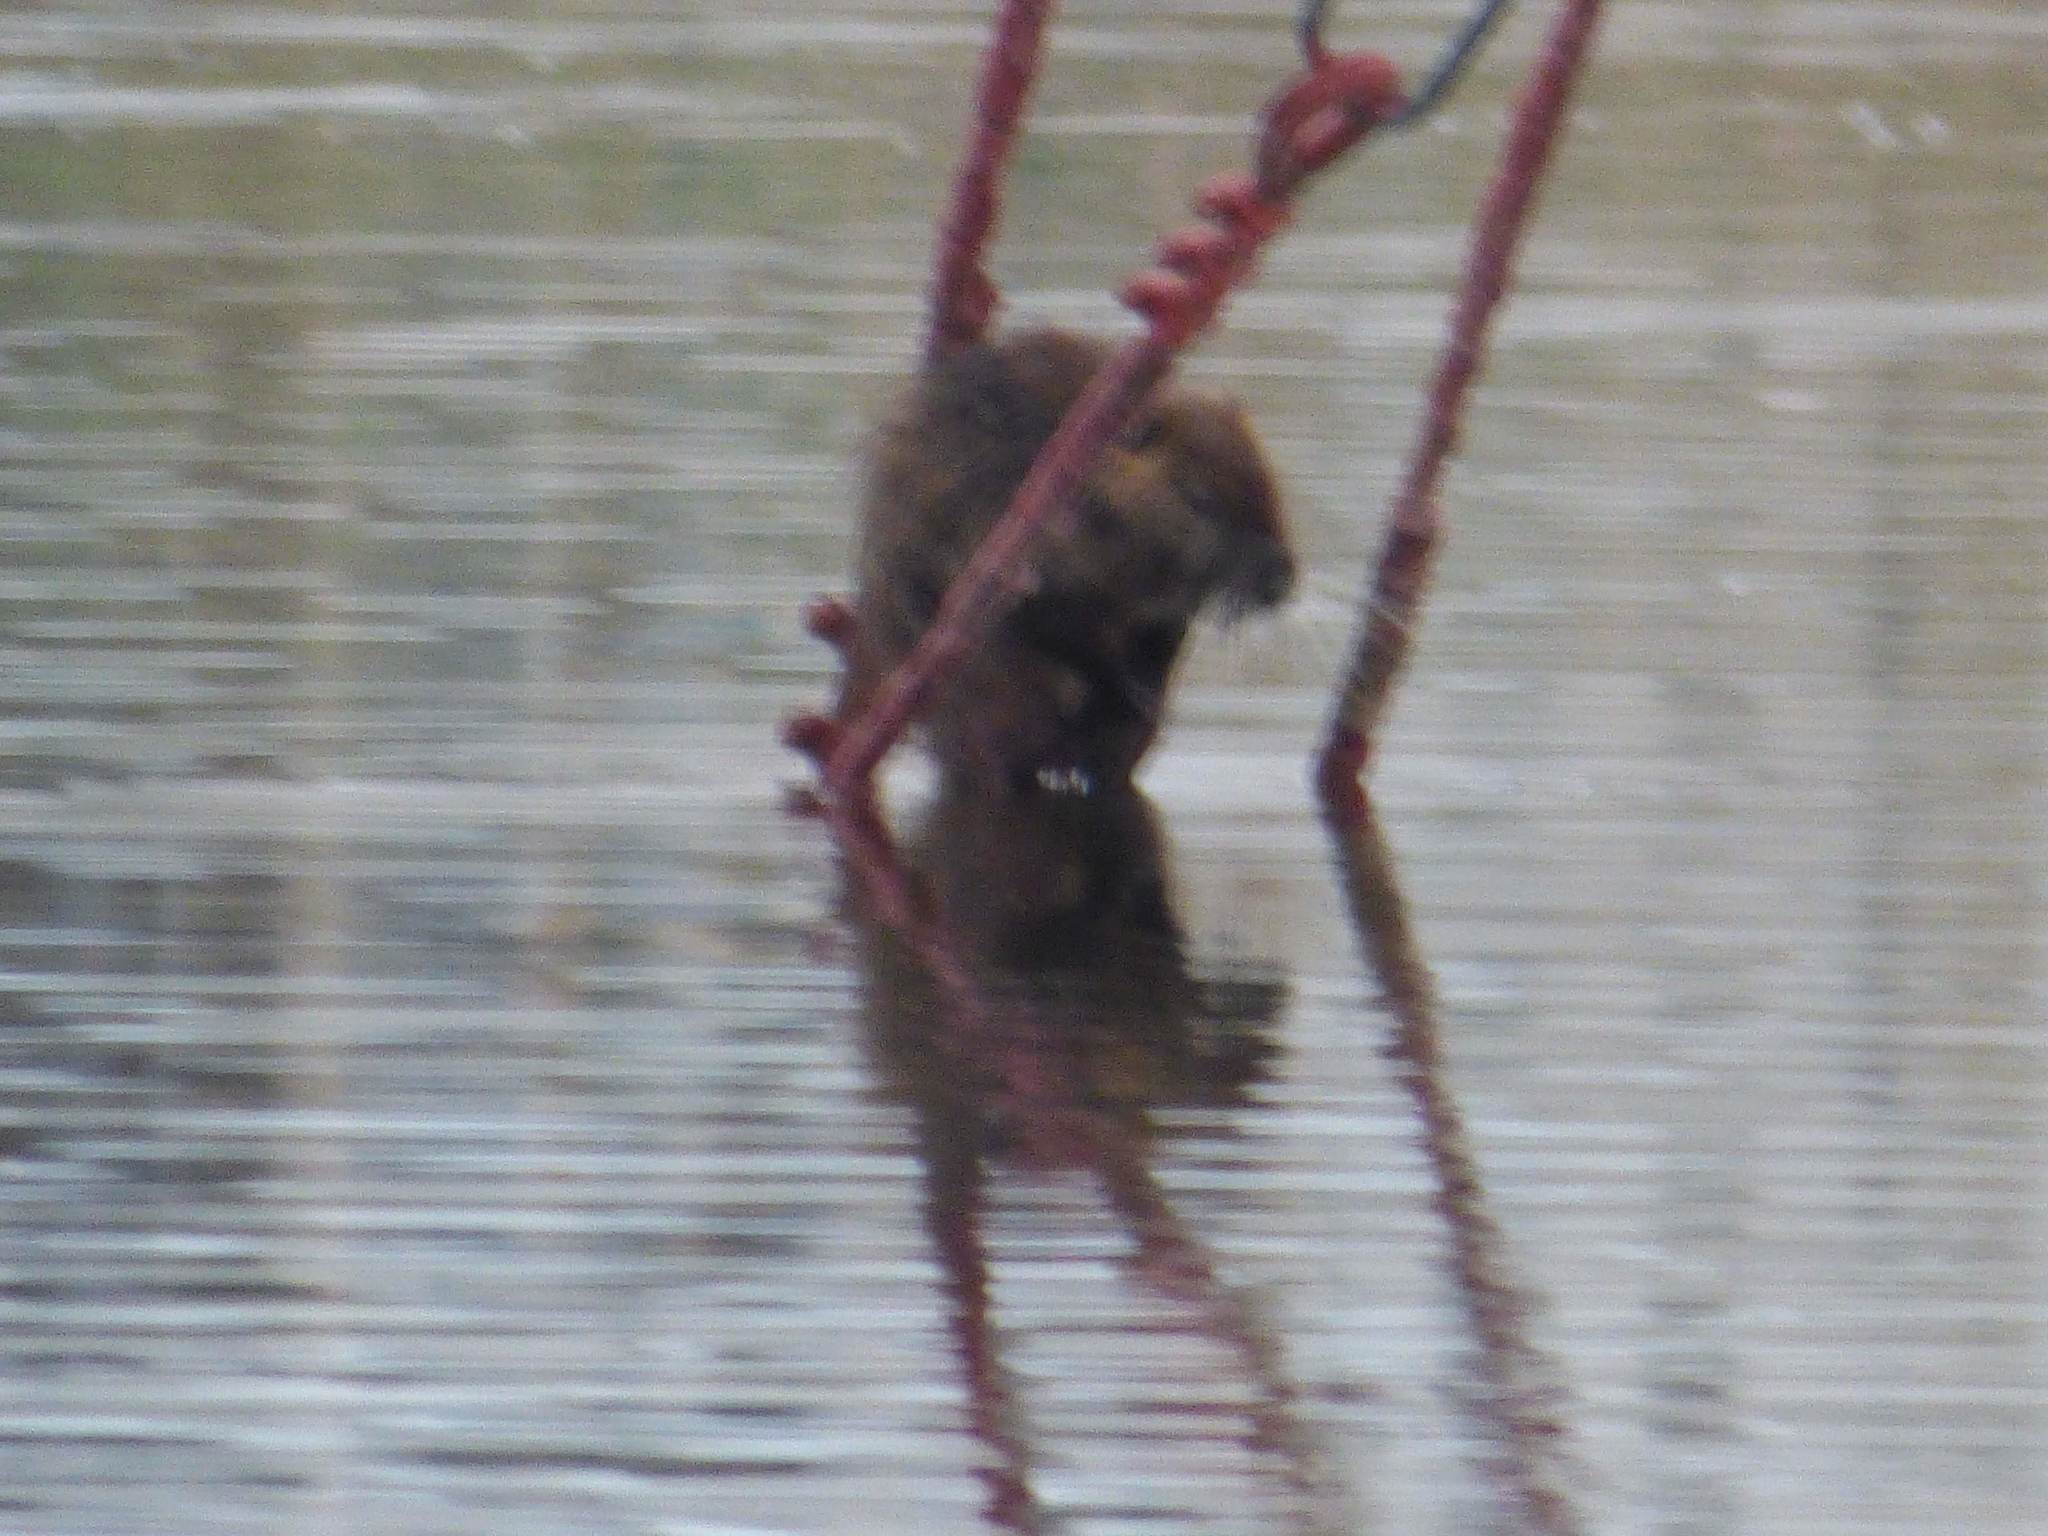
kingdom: Animalia
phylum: Chordata
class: Mammalia
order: Rodentia
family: Myocastoridae
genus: Myocastor
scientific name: Myocastor coypus
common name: Coypu
